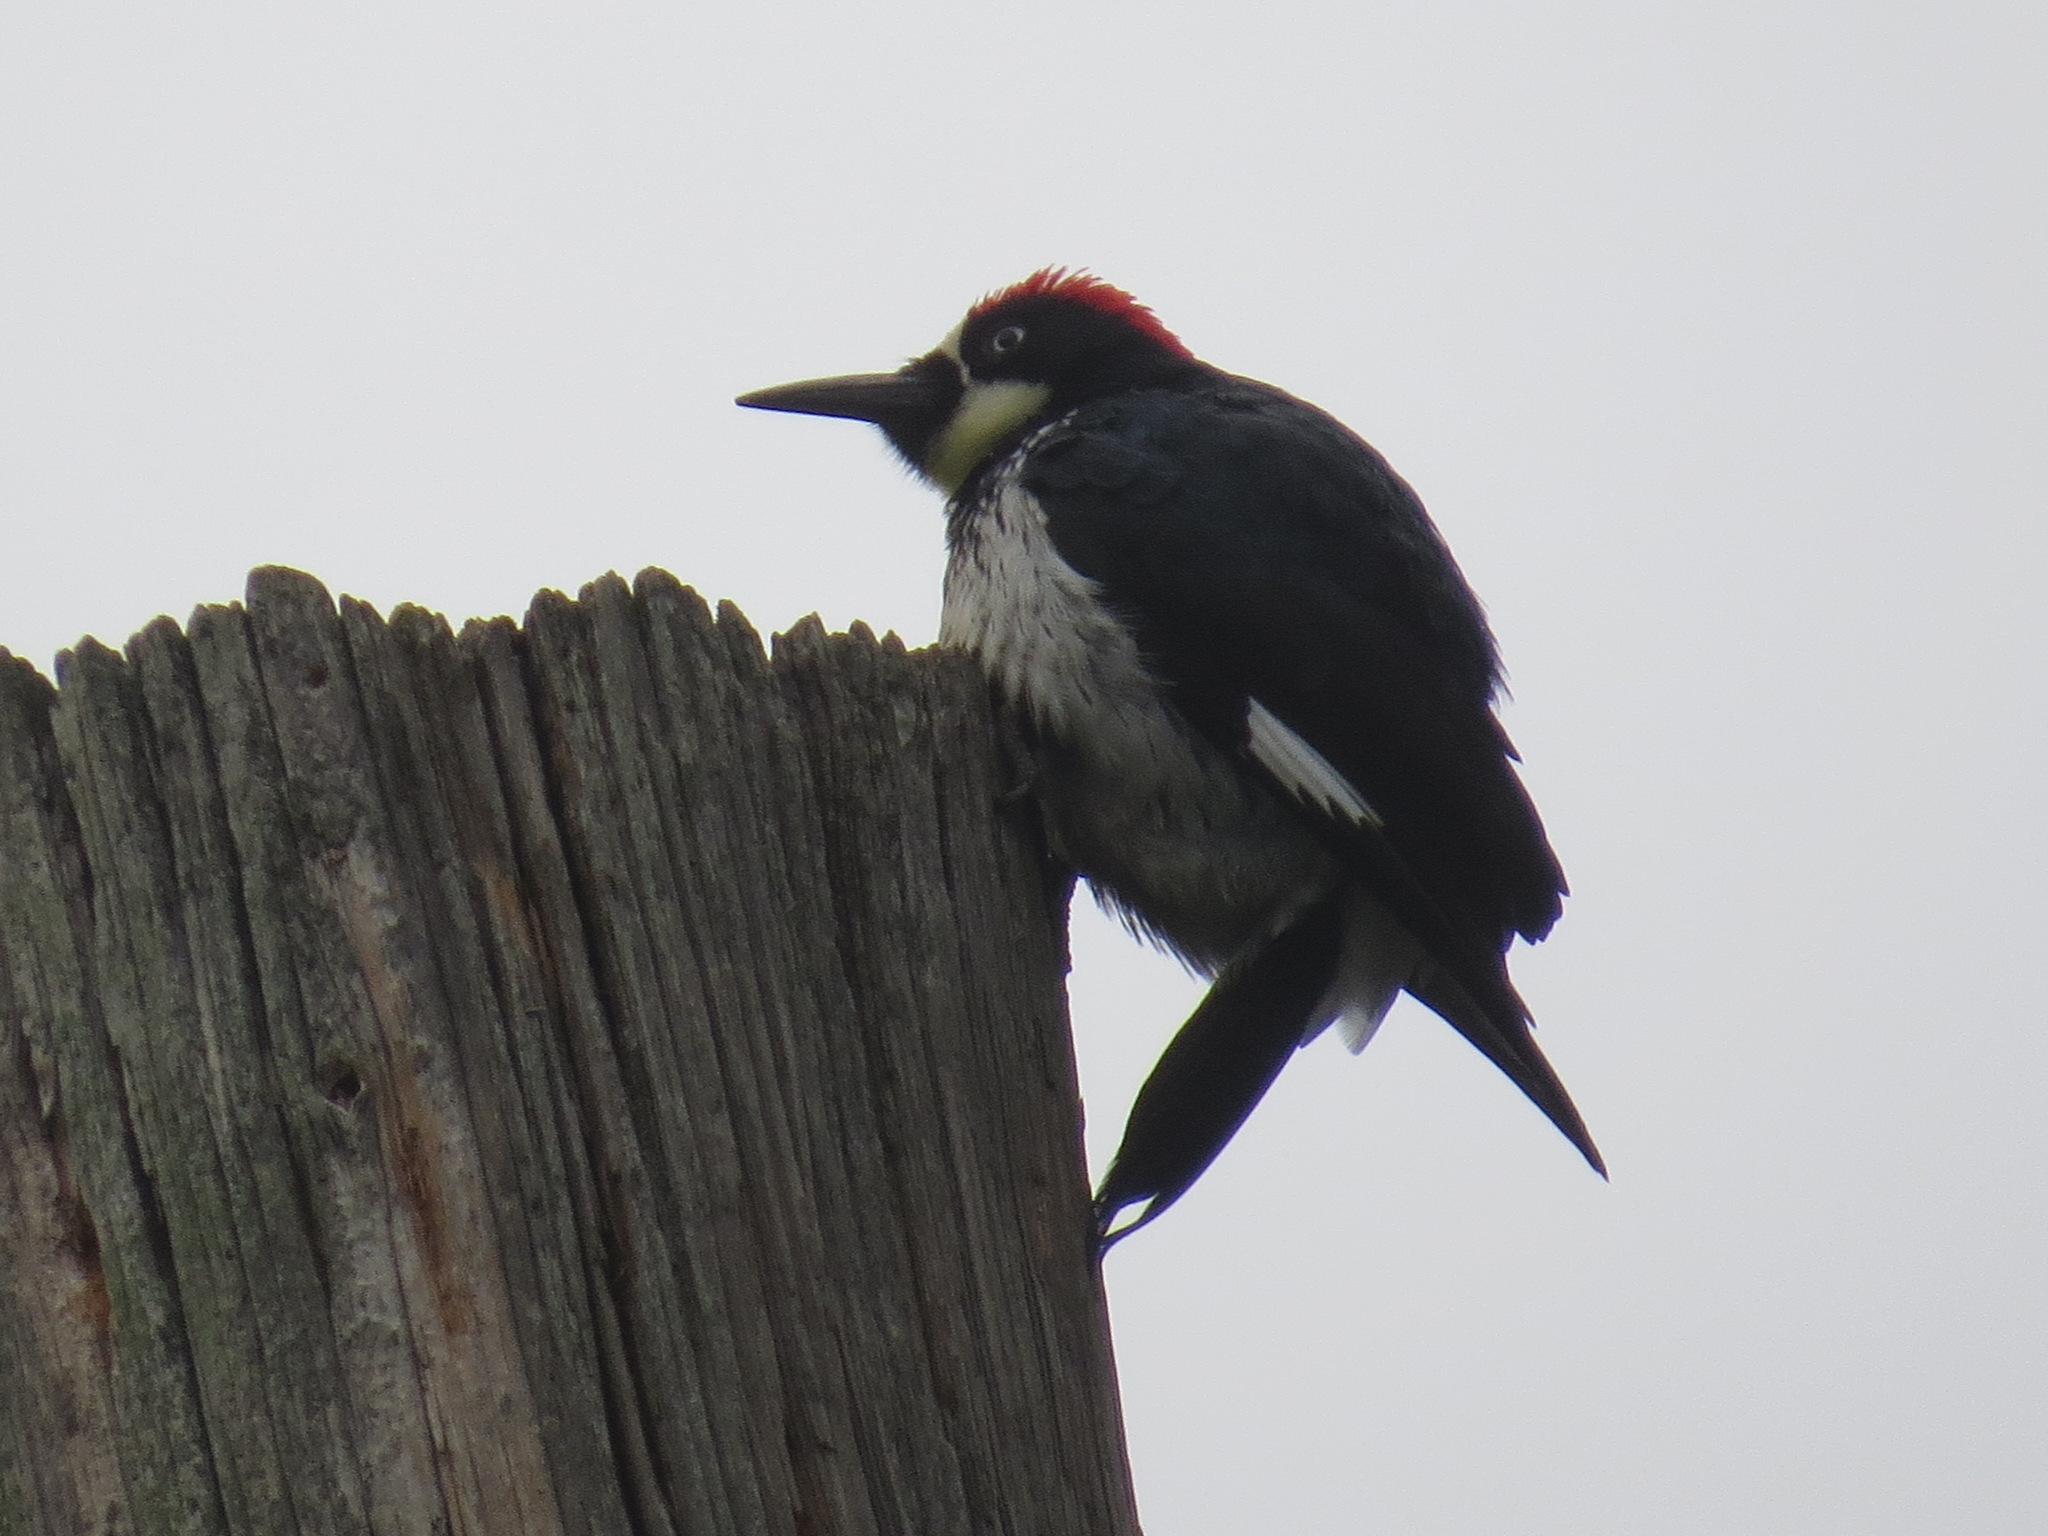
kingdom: Animalia
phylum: Chordata
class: Aves
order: Piciformes
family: Picidae
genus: Melanerpes
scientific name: Melanerpes formicivorus
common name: Acorn woodpecker
